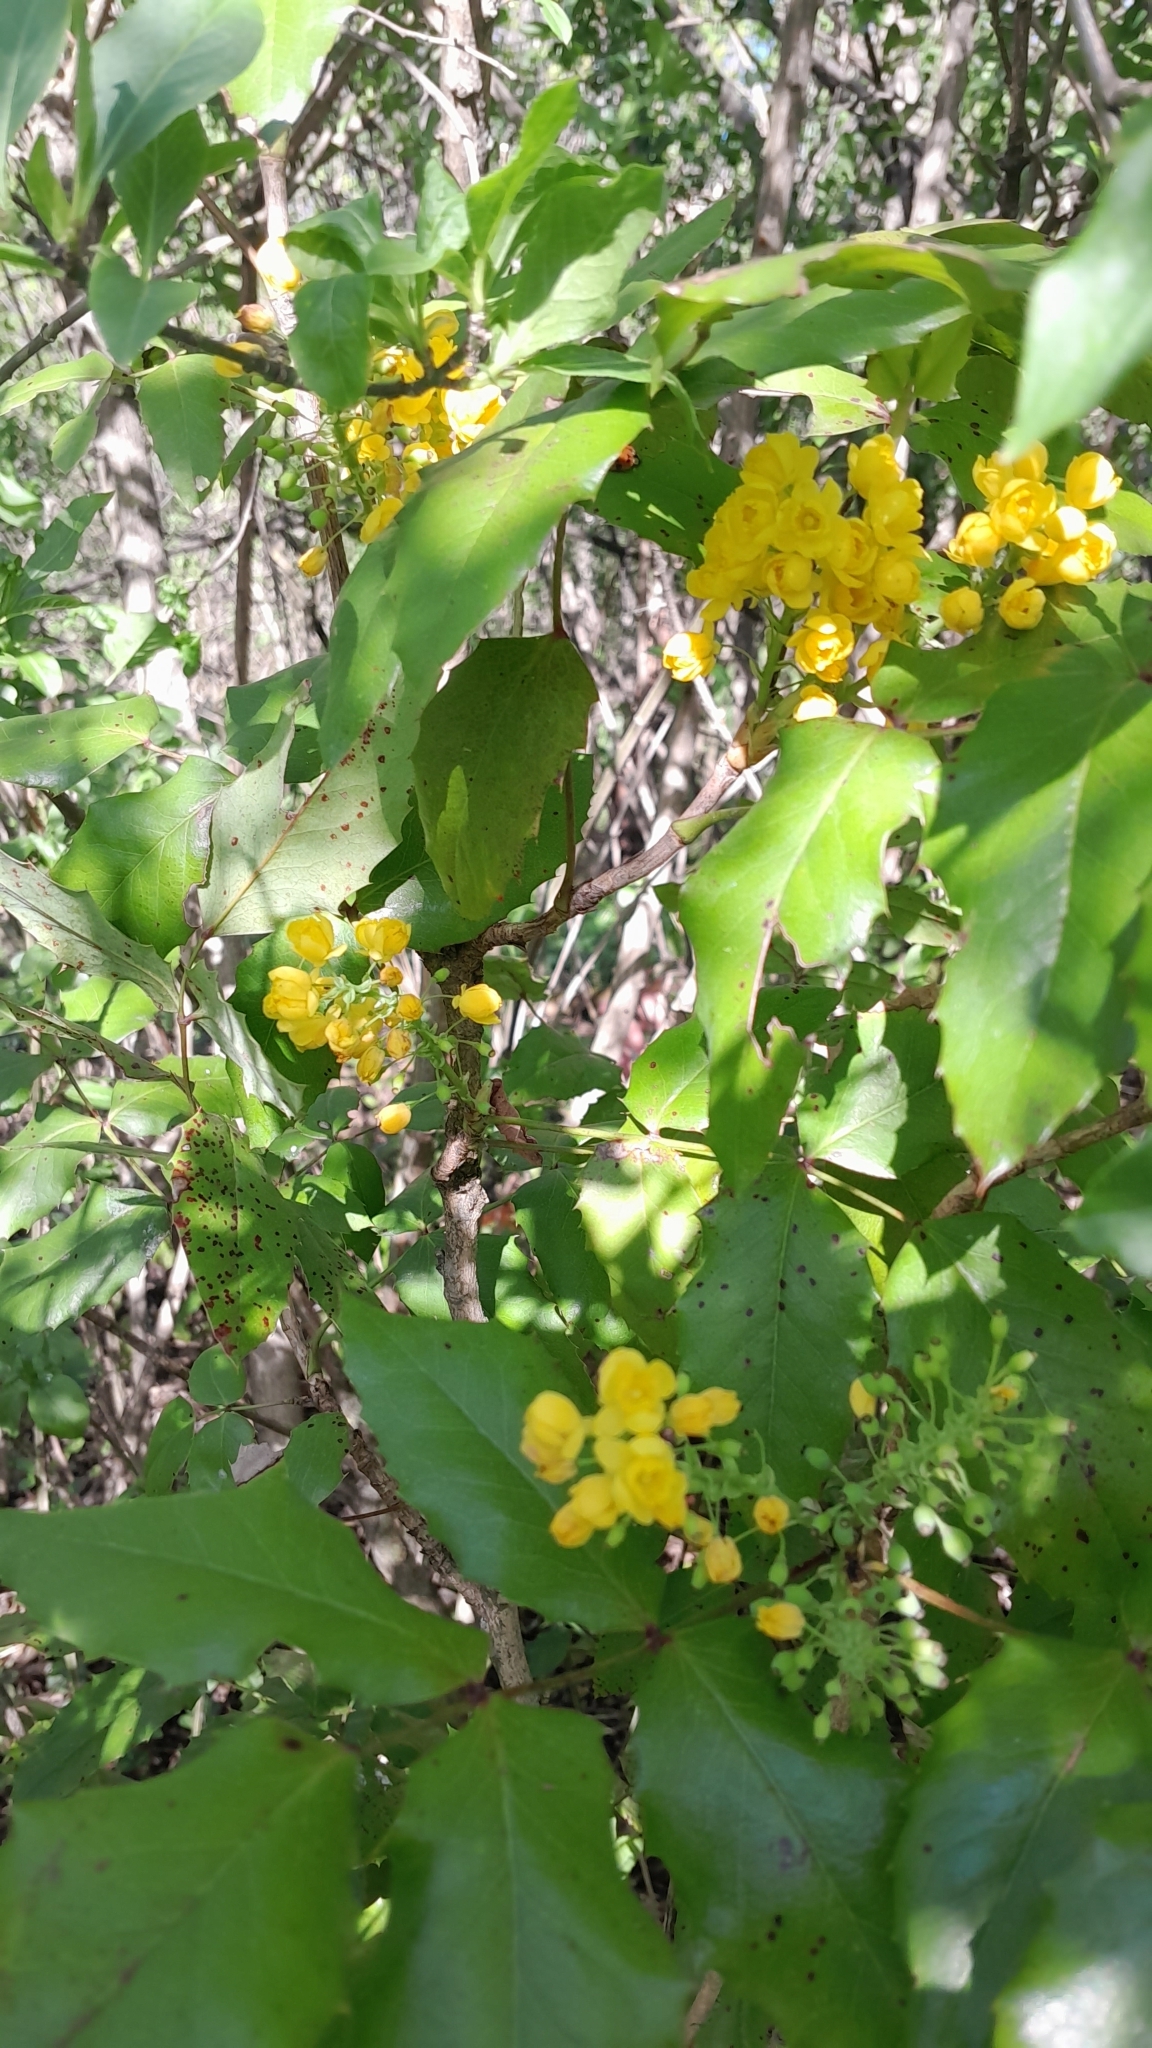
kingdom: Plantae
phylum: Tracheophyta
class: Magnoliopsida
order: Ranunculales
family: Berberidaceae
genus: Mahonia
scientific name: Mahonia aquifolium
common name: Oregon-grape
